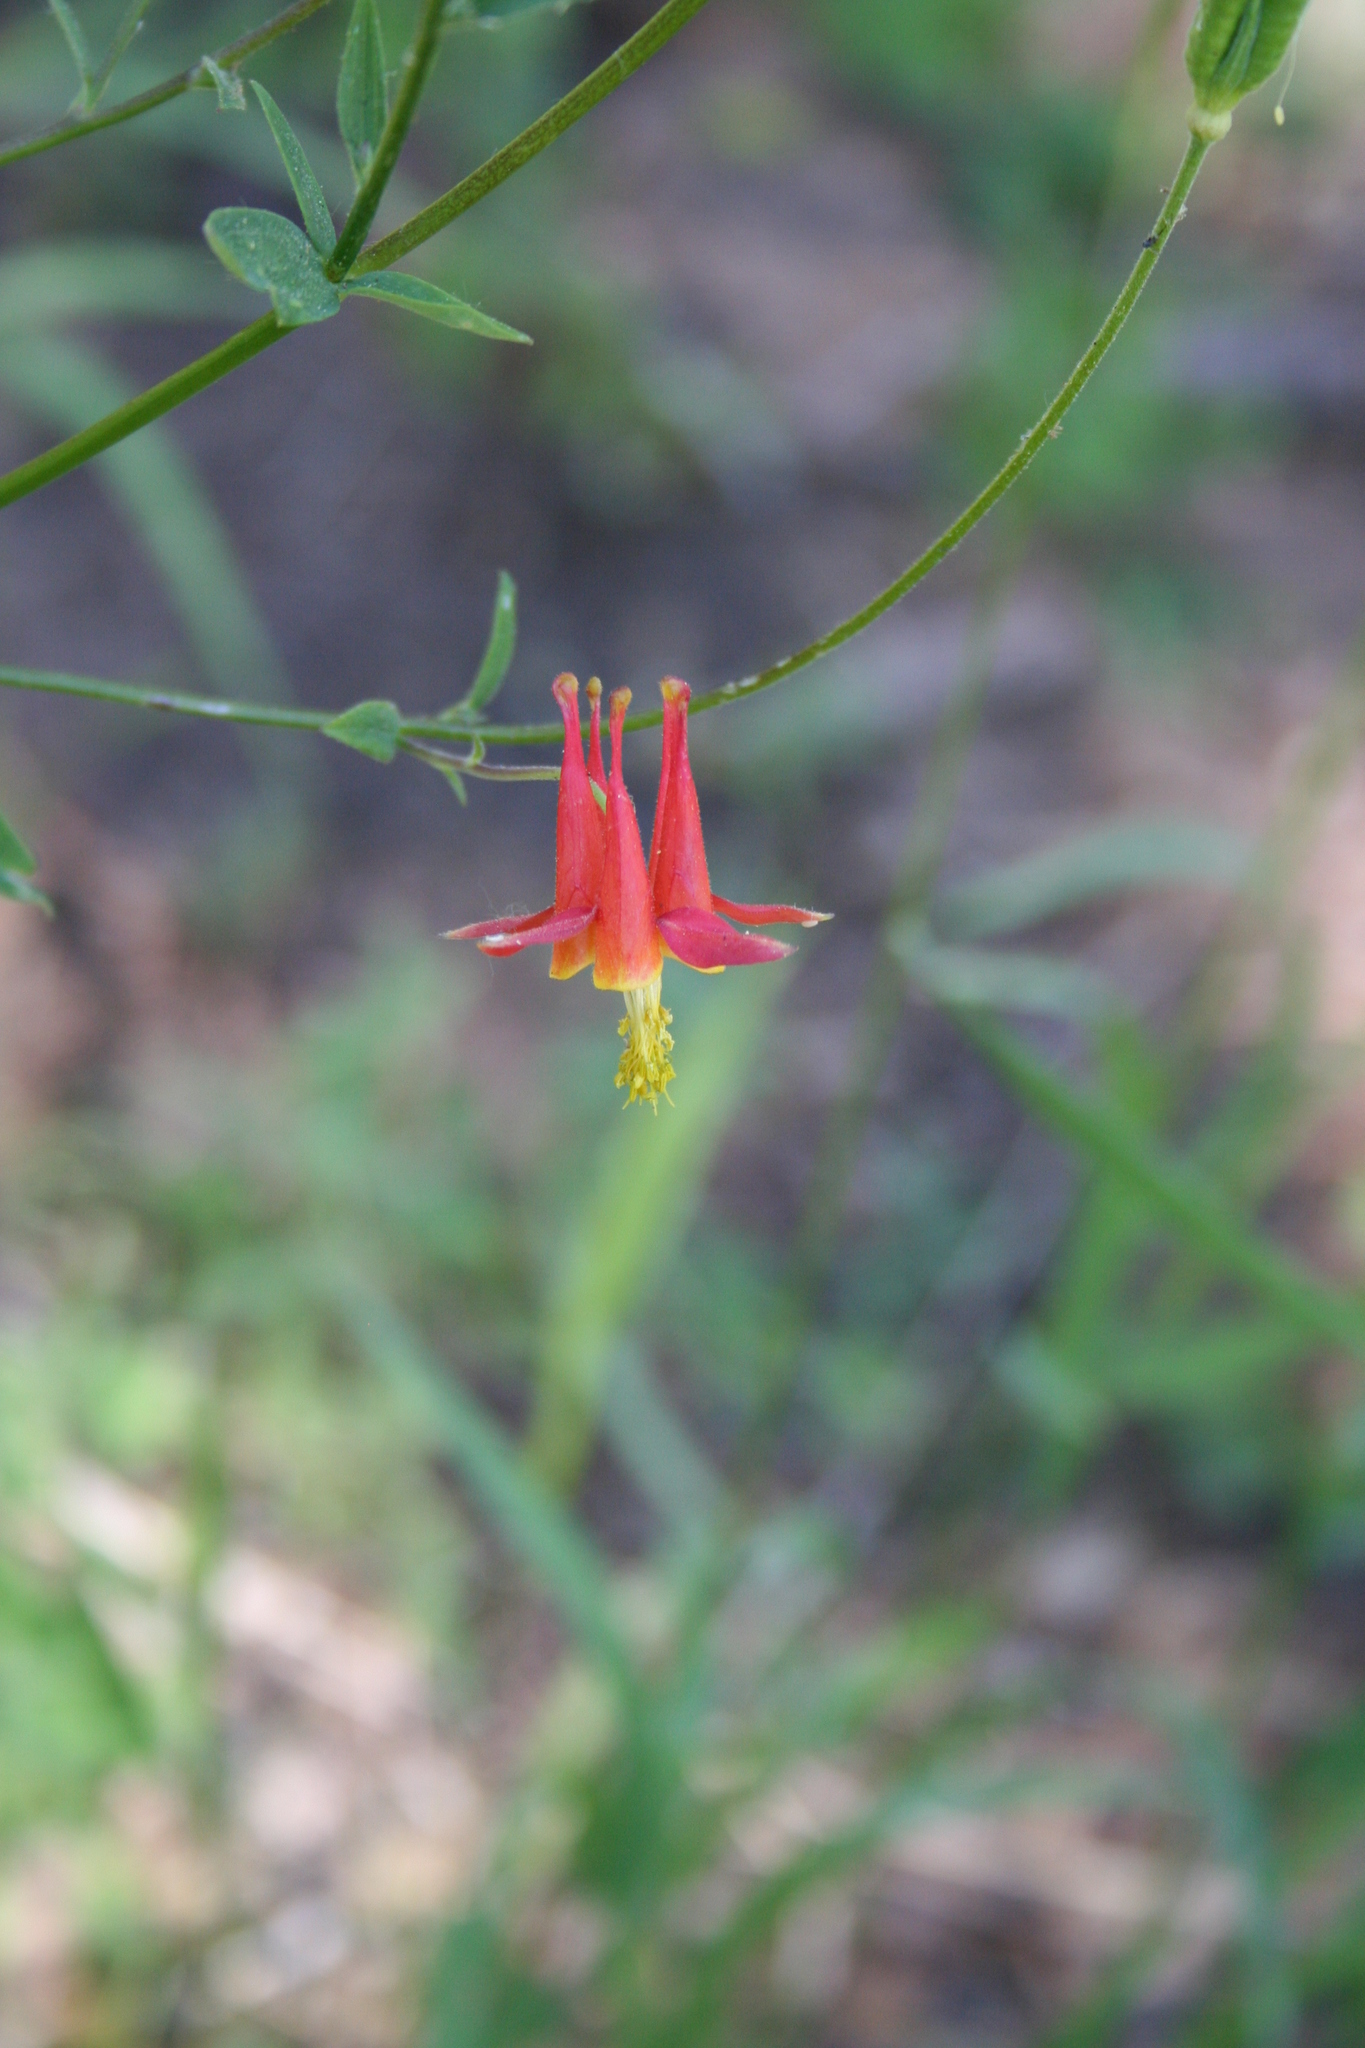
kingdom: Plantae
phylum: Tracheophyta
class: Magnoliopsida
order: Ranunculales
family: Ranunculaceae
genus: Aquilegia
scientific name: Aquilegia formosa
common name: Sitka columbine
